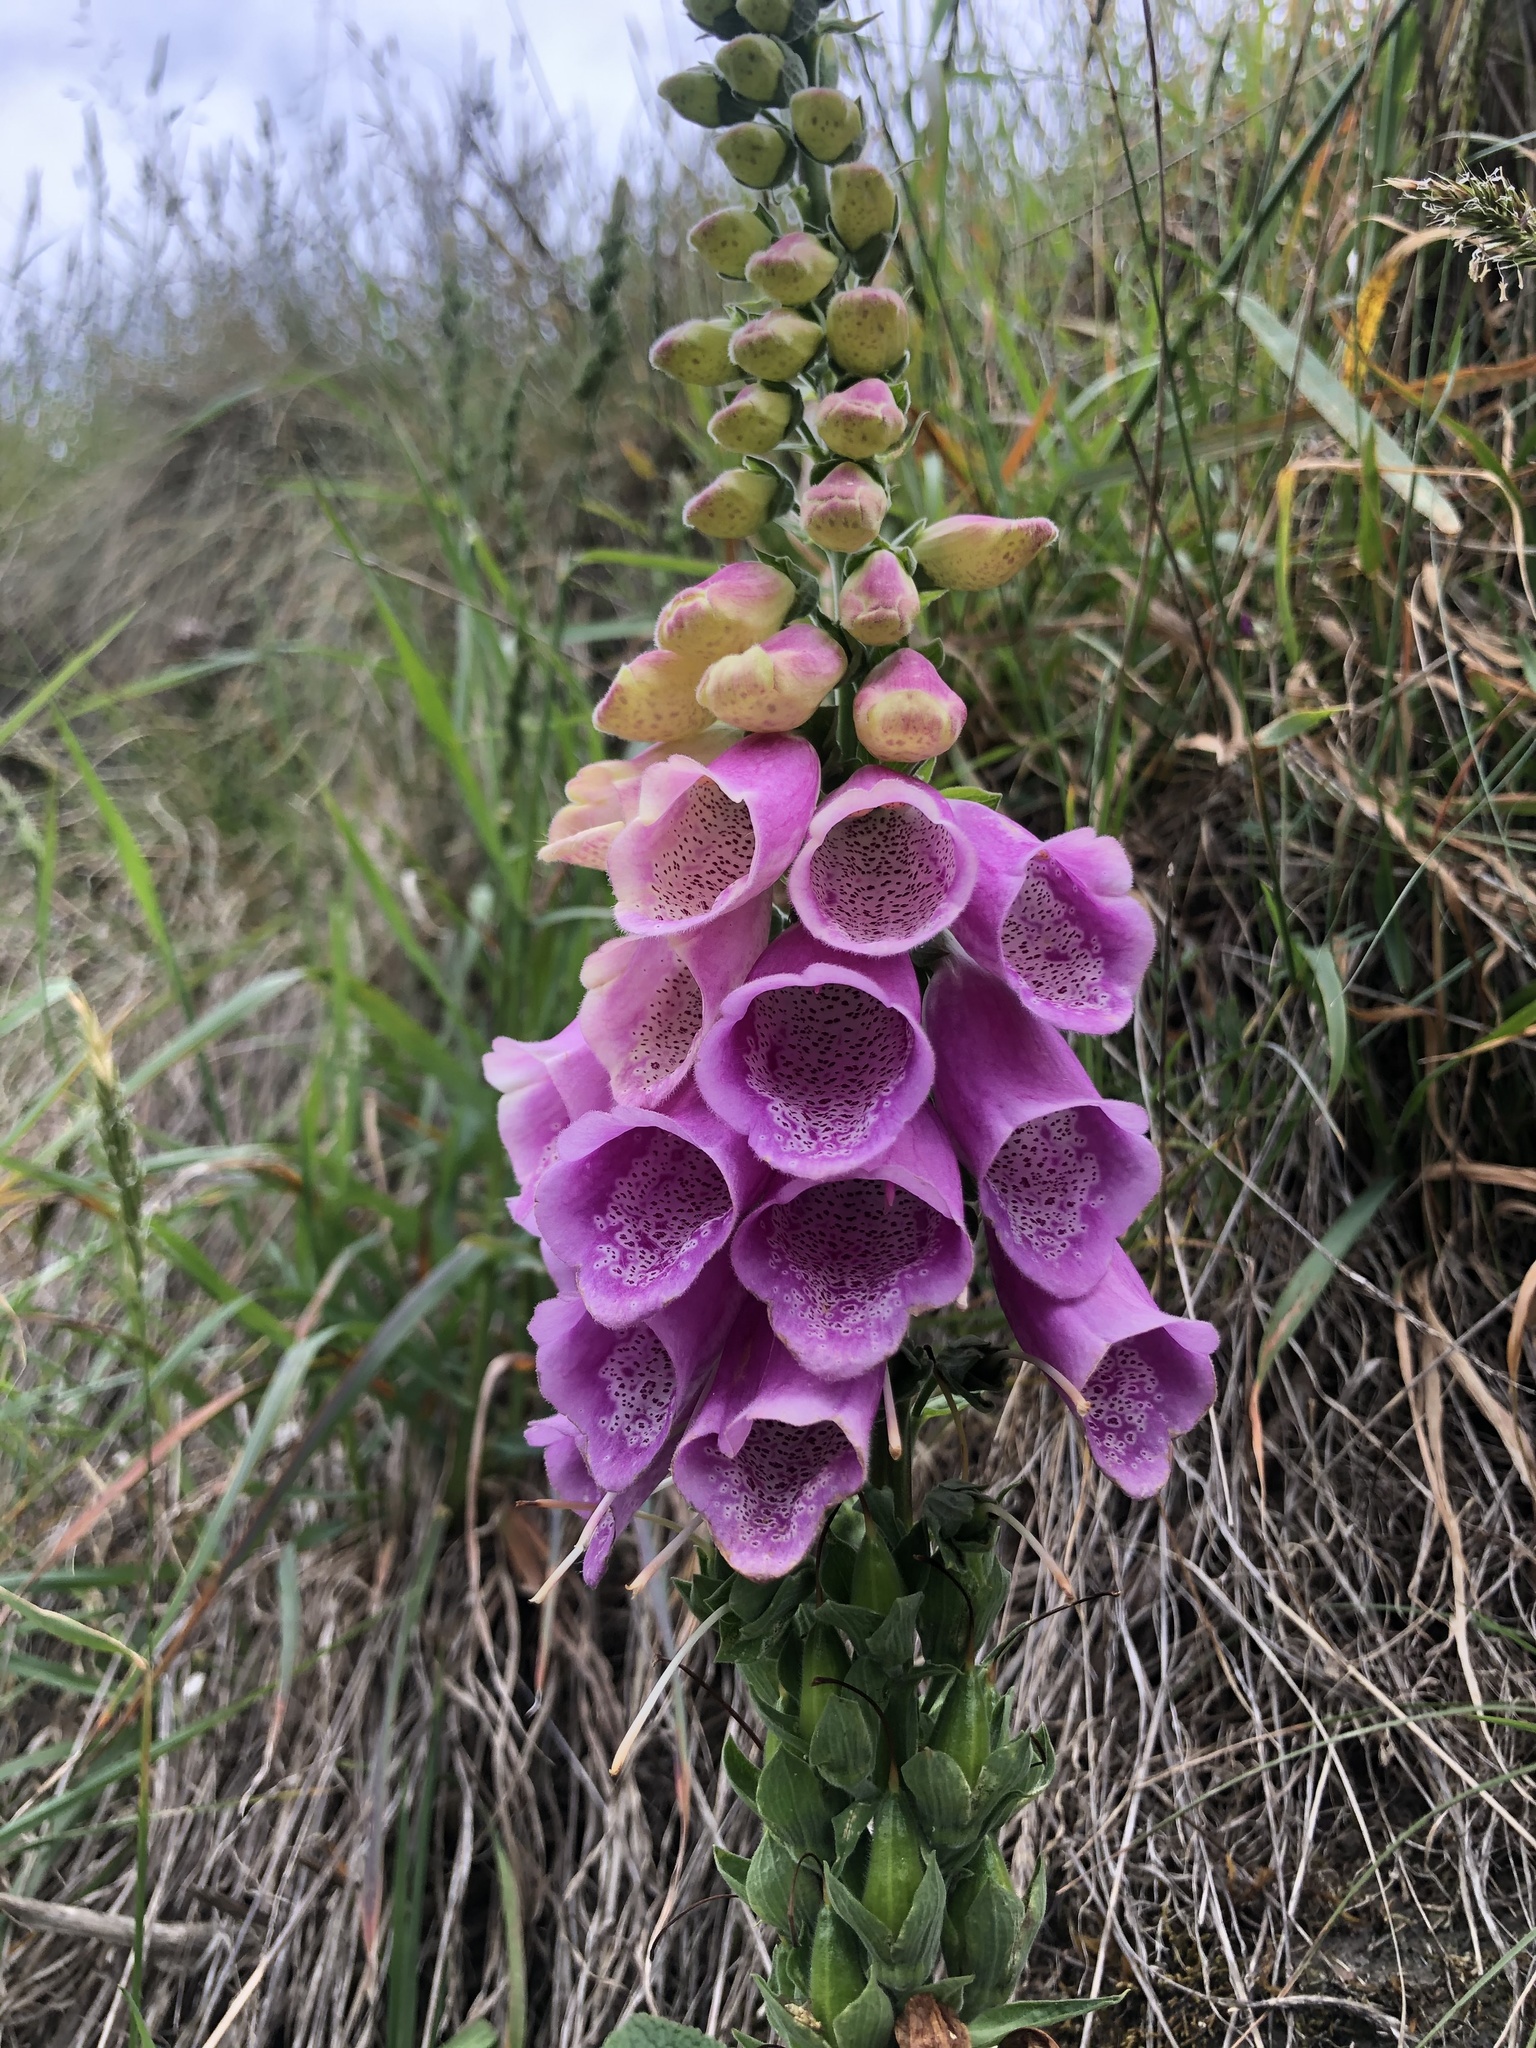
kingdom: Plantae
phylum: Tracheophyta
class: Magnoliopsida
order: Lamiales
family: Plantaginaceae
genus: Digitalis
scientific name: Digitalis purpurea
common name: Foxglove
